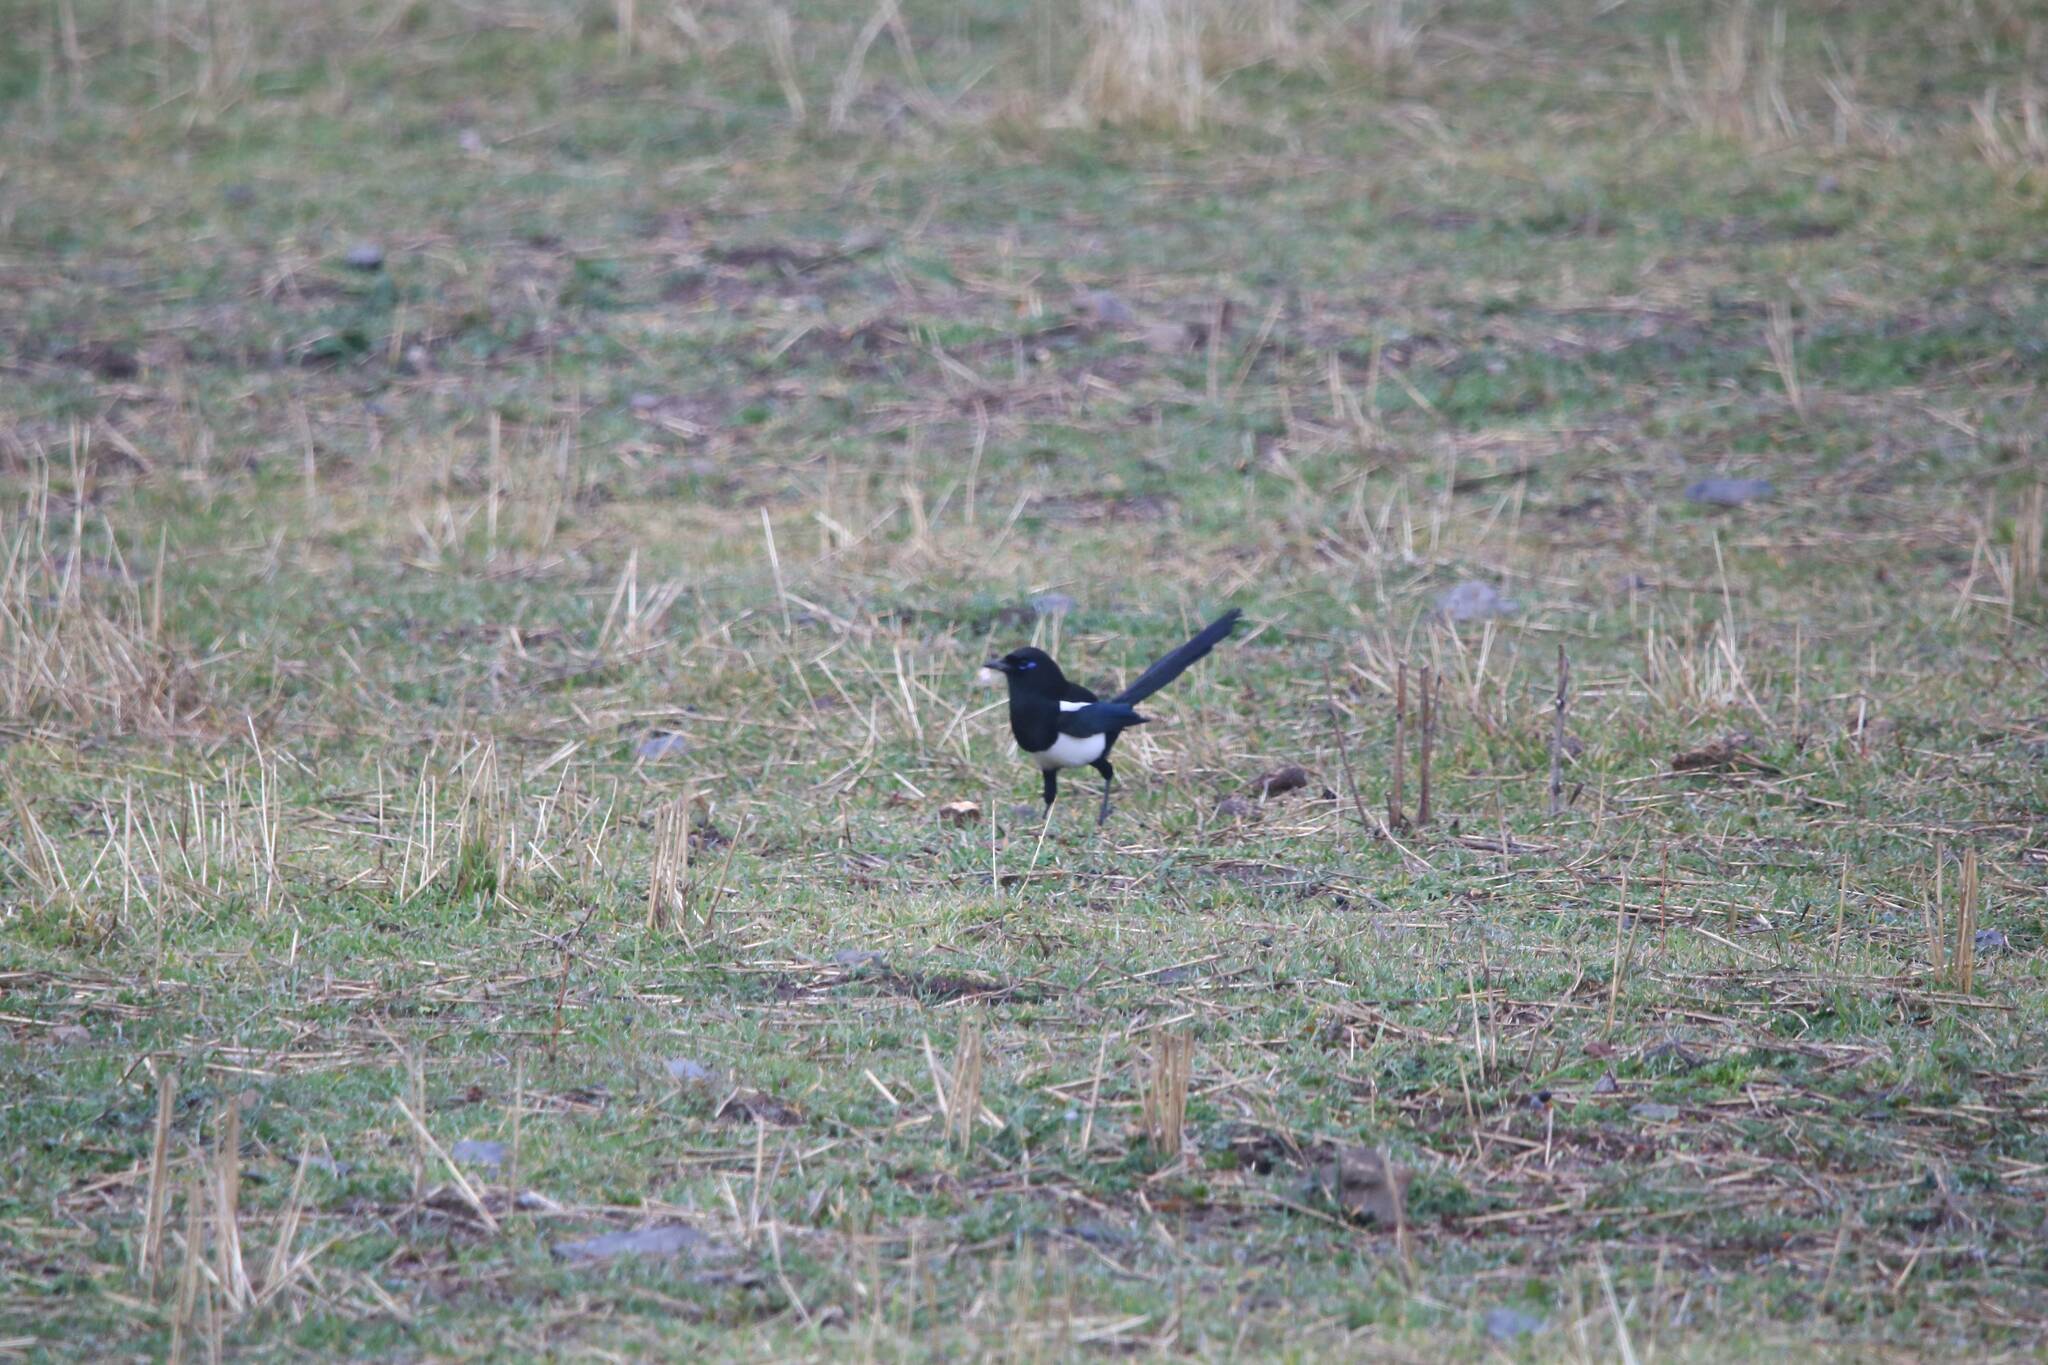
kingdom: Animalia
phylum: Chordata
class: Aves
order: Passeriformes
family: Corvidae
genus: Pica
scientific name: Pica mauritanica
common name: Maghreb magpie
